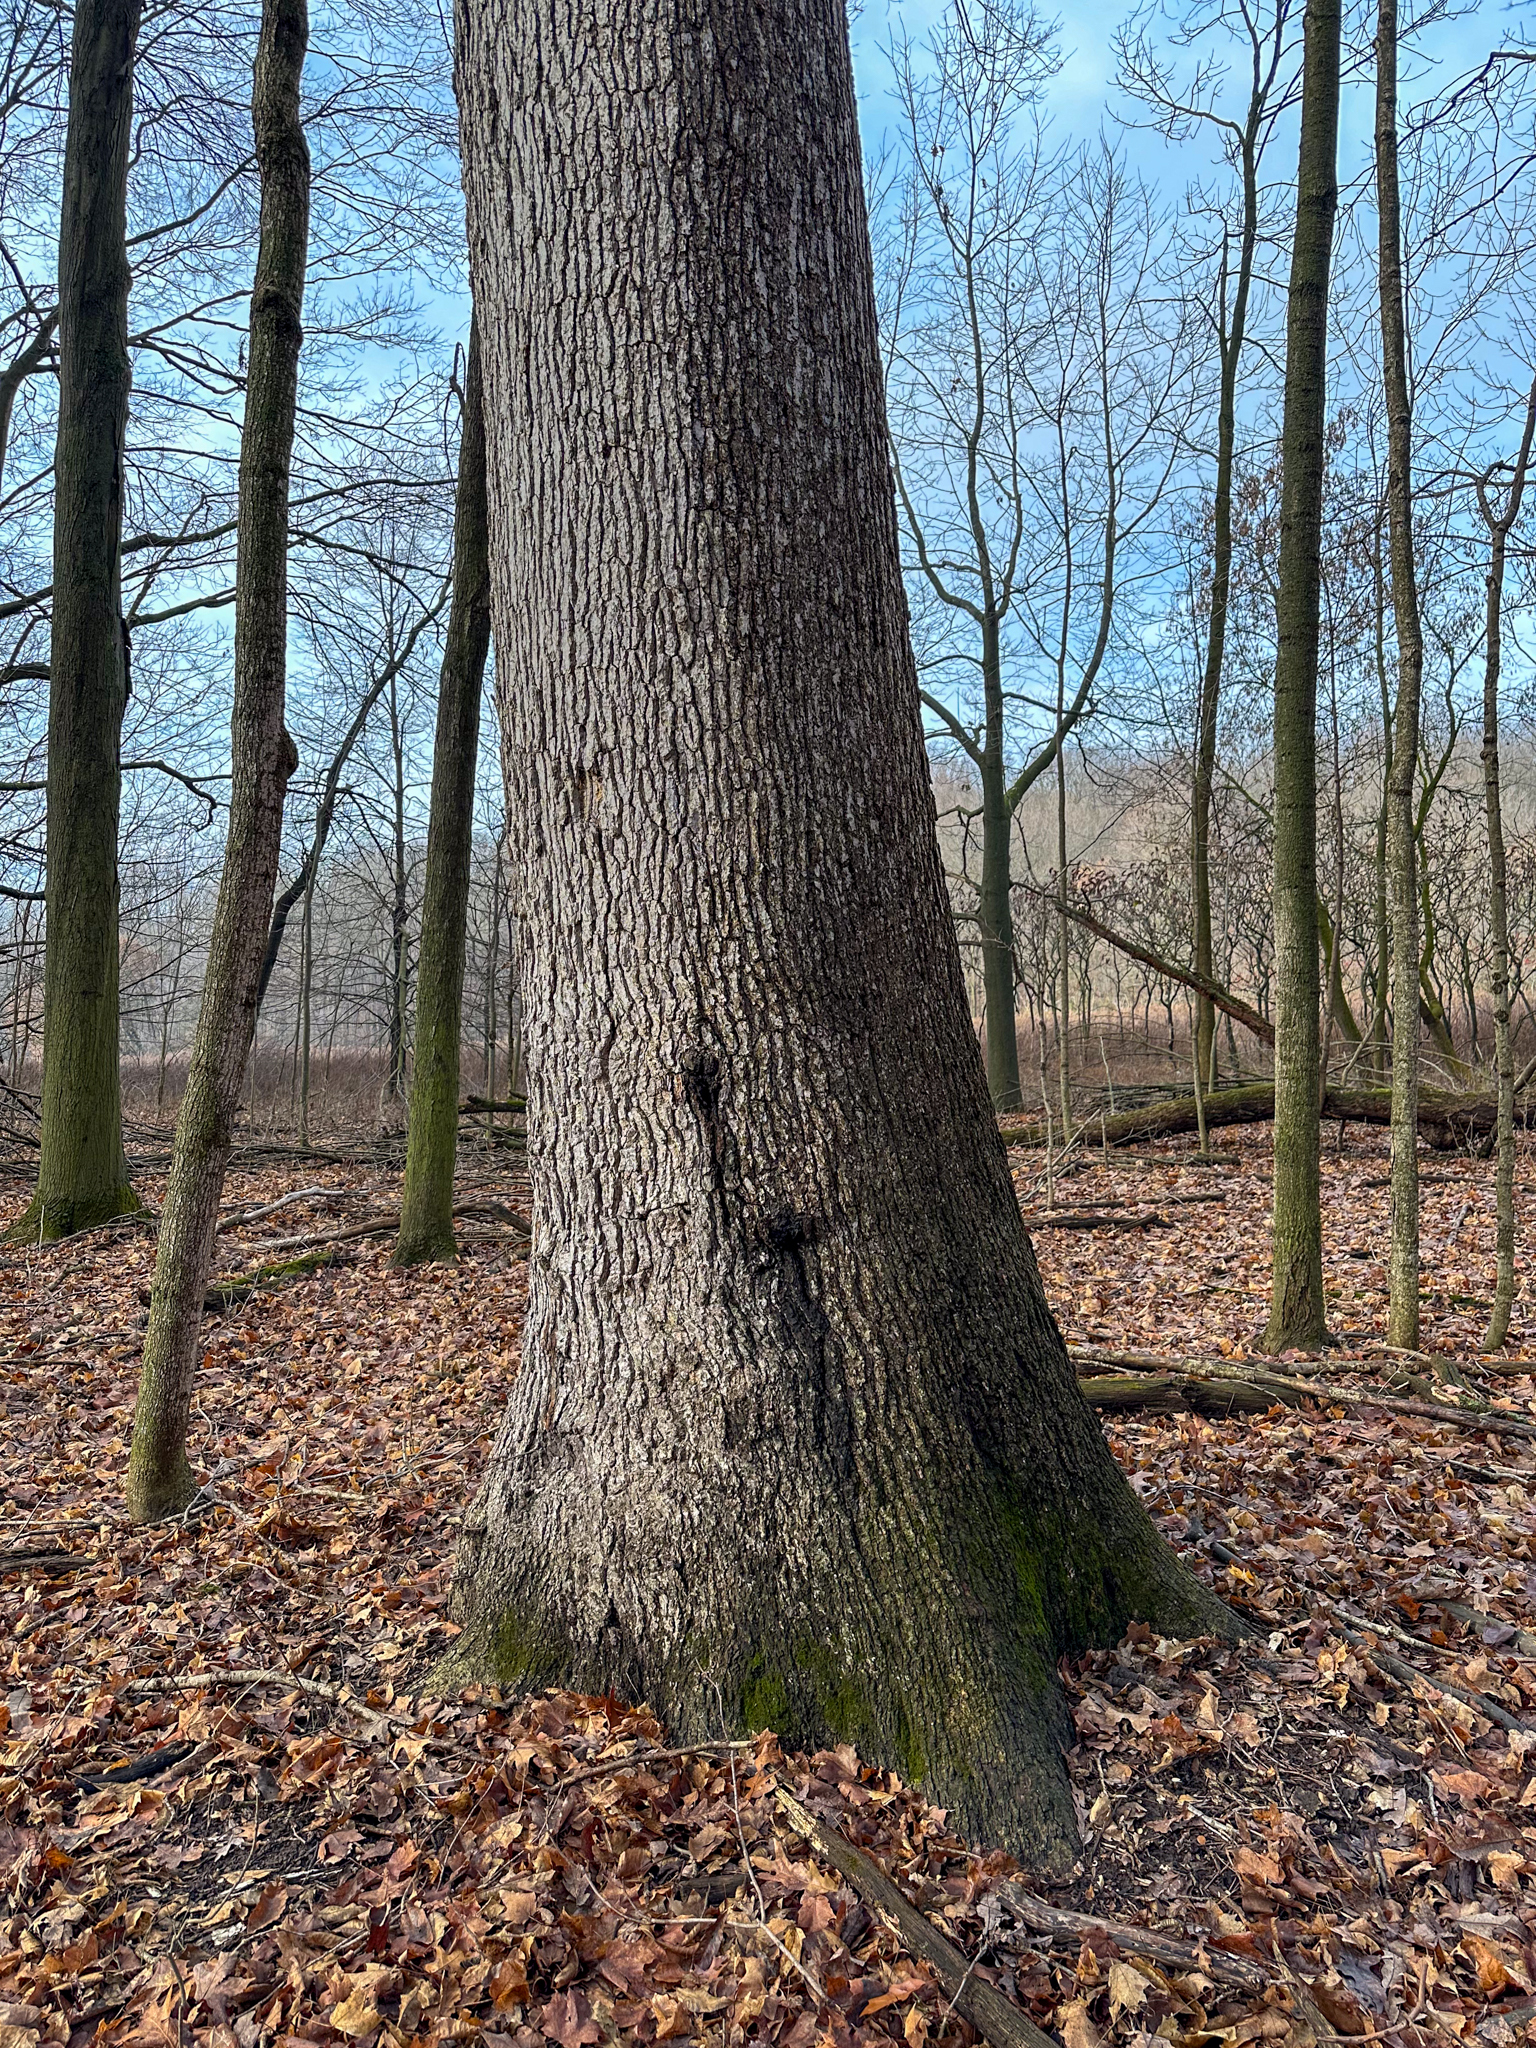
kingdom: Plantae
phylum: Tracheophyta
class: Magnoliopsida
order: Fagales
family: Fagaceae
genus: Quercus
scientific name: Quercus alba
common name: White oak
